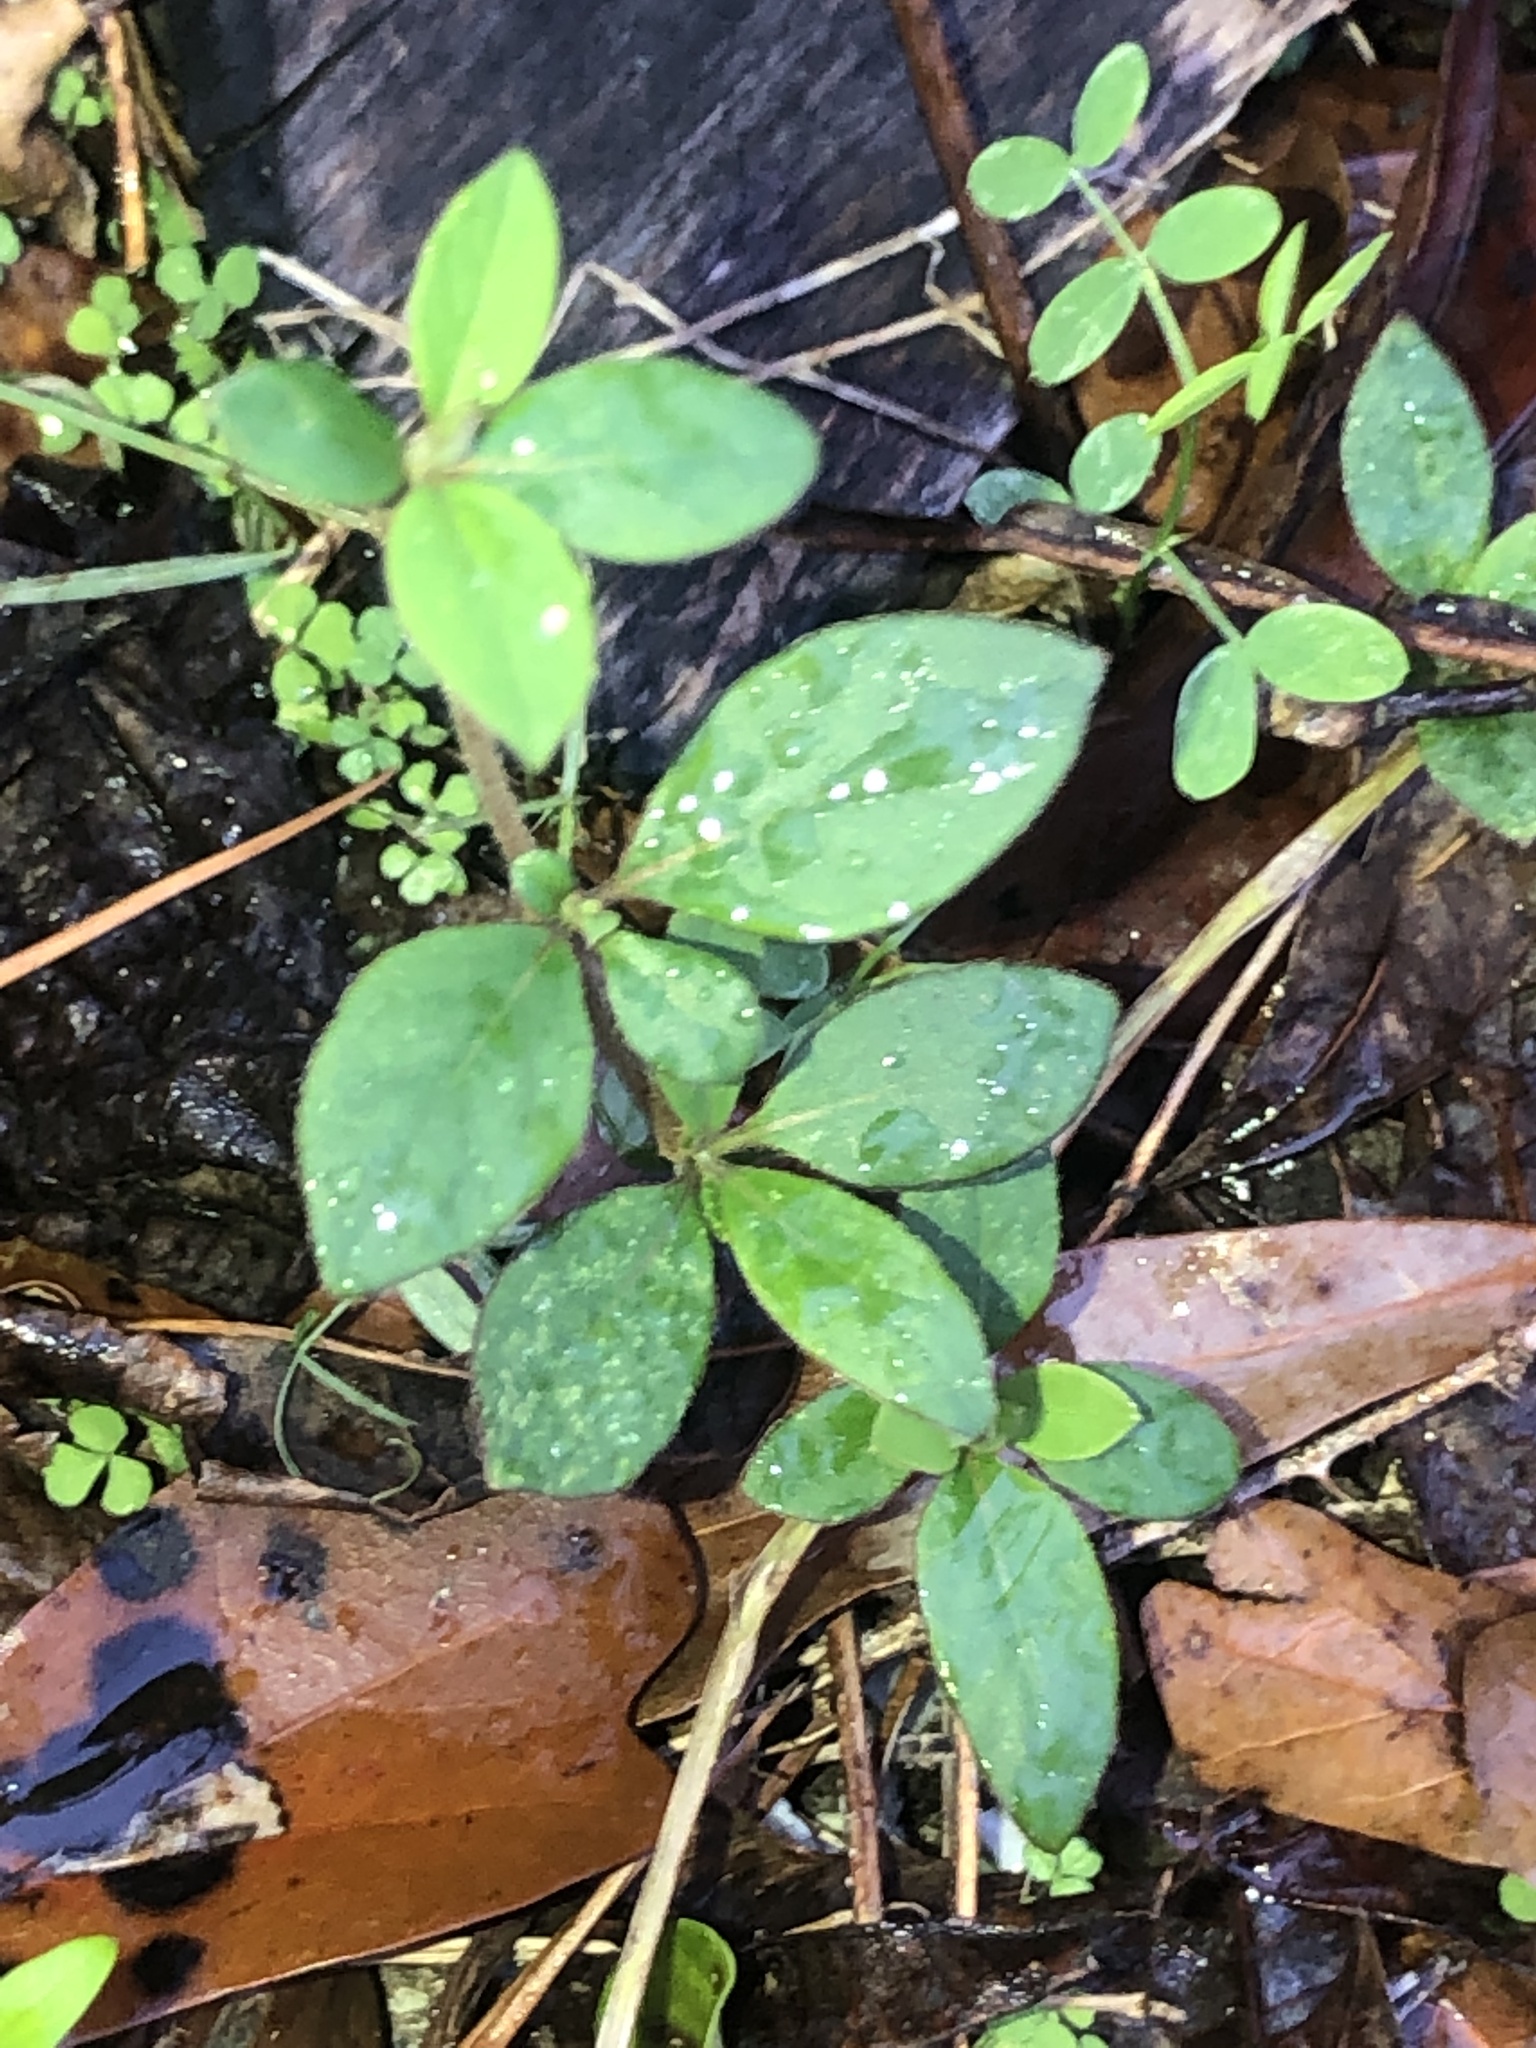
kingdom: Plantae
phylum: Tracheophyta
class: Magnoliopsida
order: Dipsacales
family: Caprifoliaceae
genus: Lonicera
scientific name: Lonicera japonica
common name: Japanese honeysuckle
